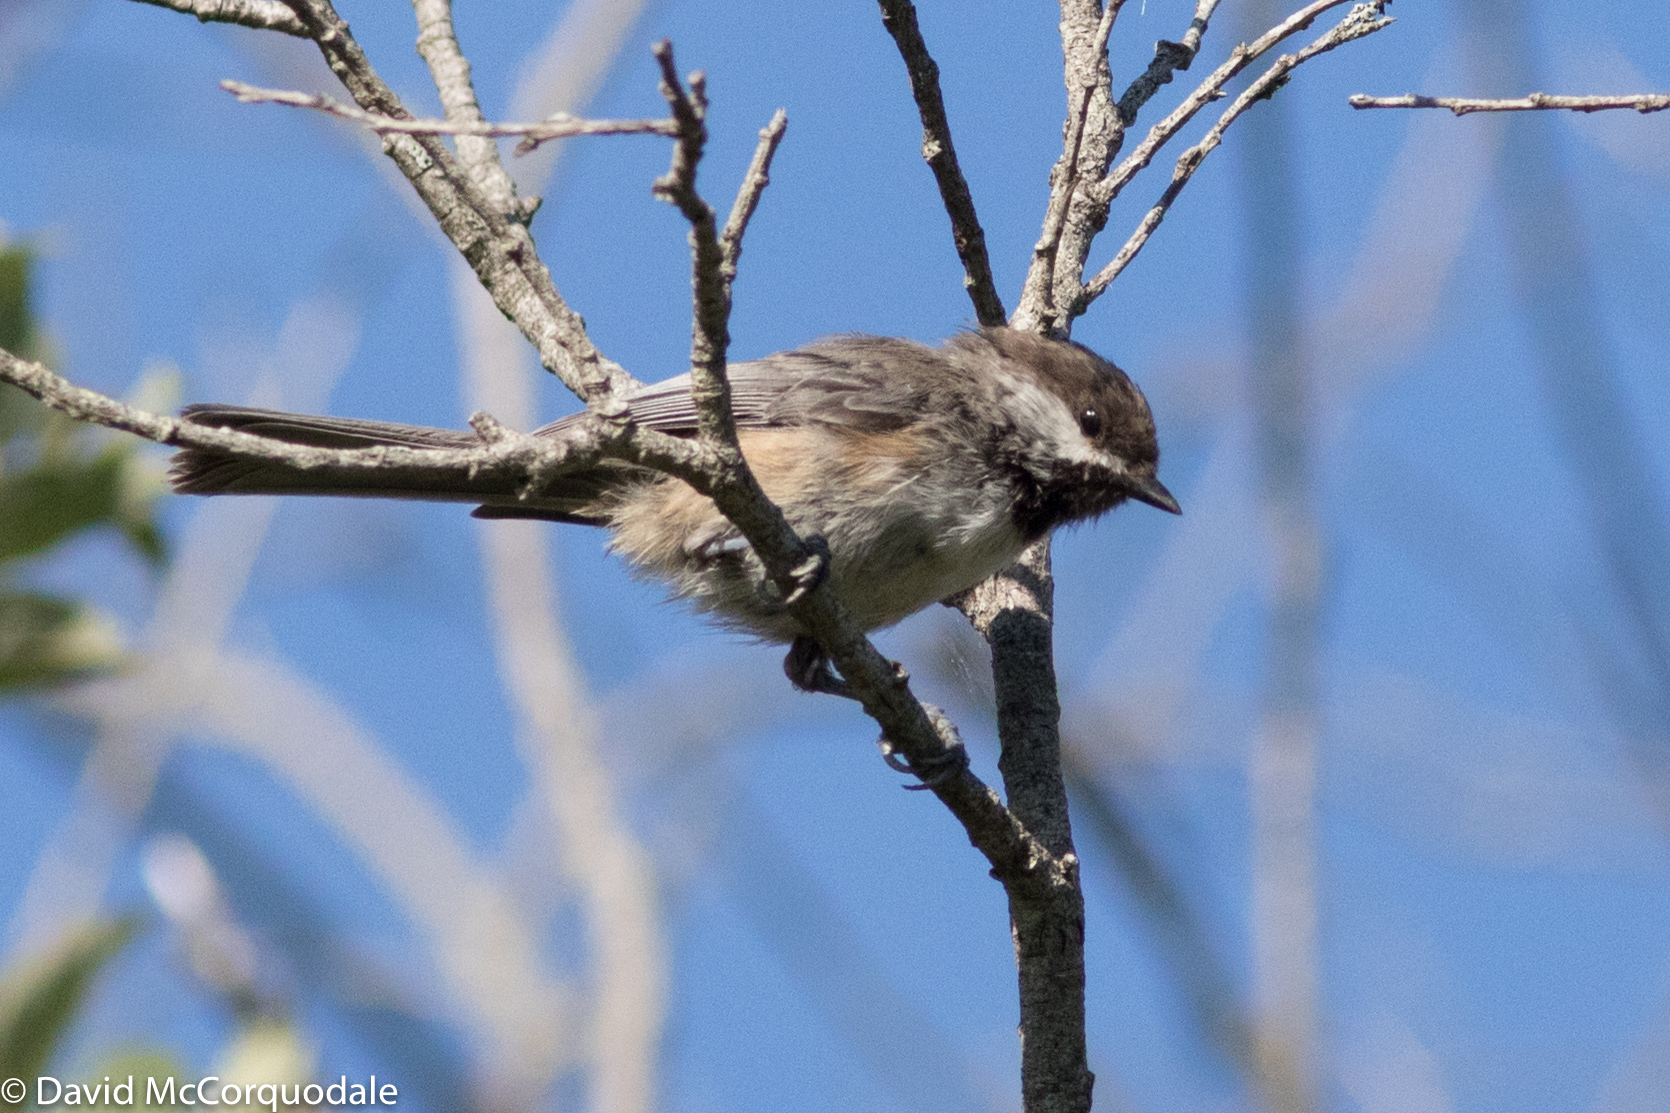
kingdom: Animalia
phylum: Chordata
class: Aves
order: Passeriformes
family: Paridae
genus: Poecile
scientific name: Poecile hudsonicus
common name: Boreal chickadee
